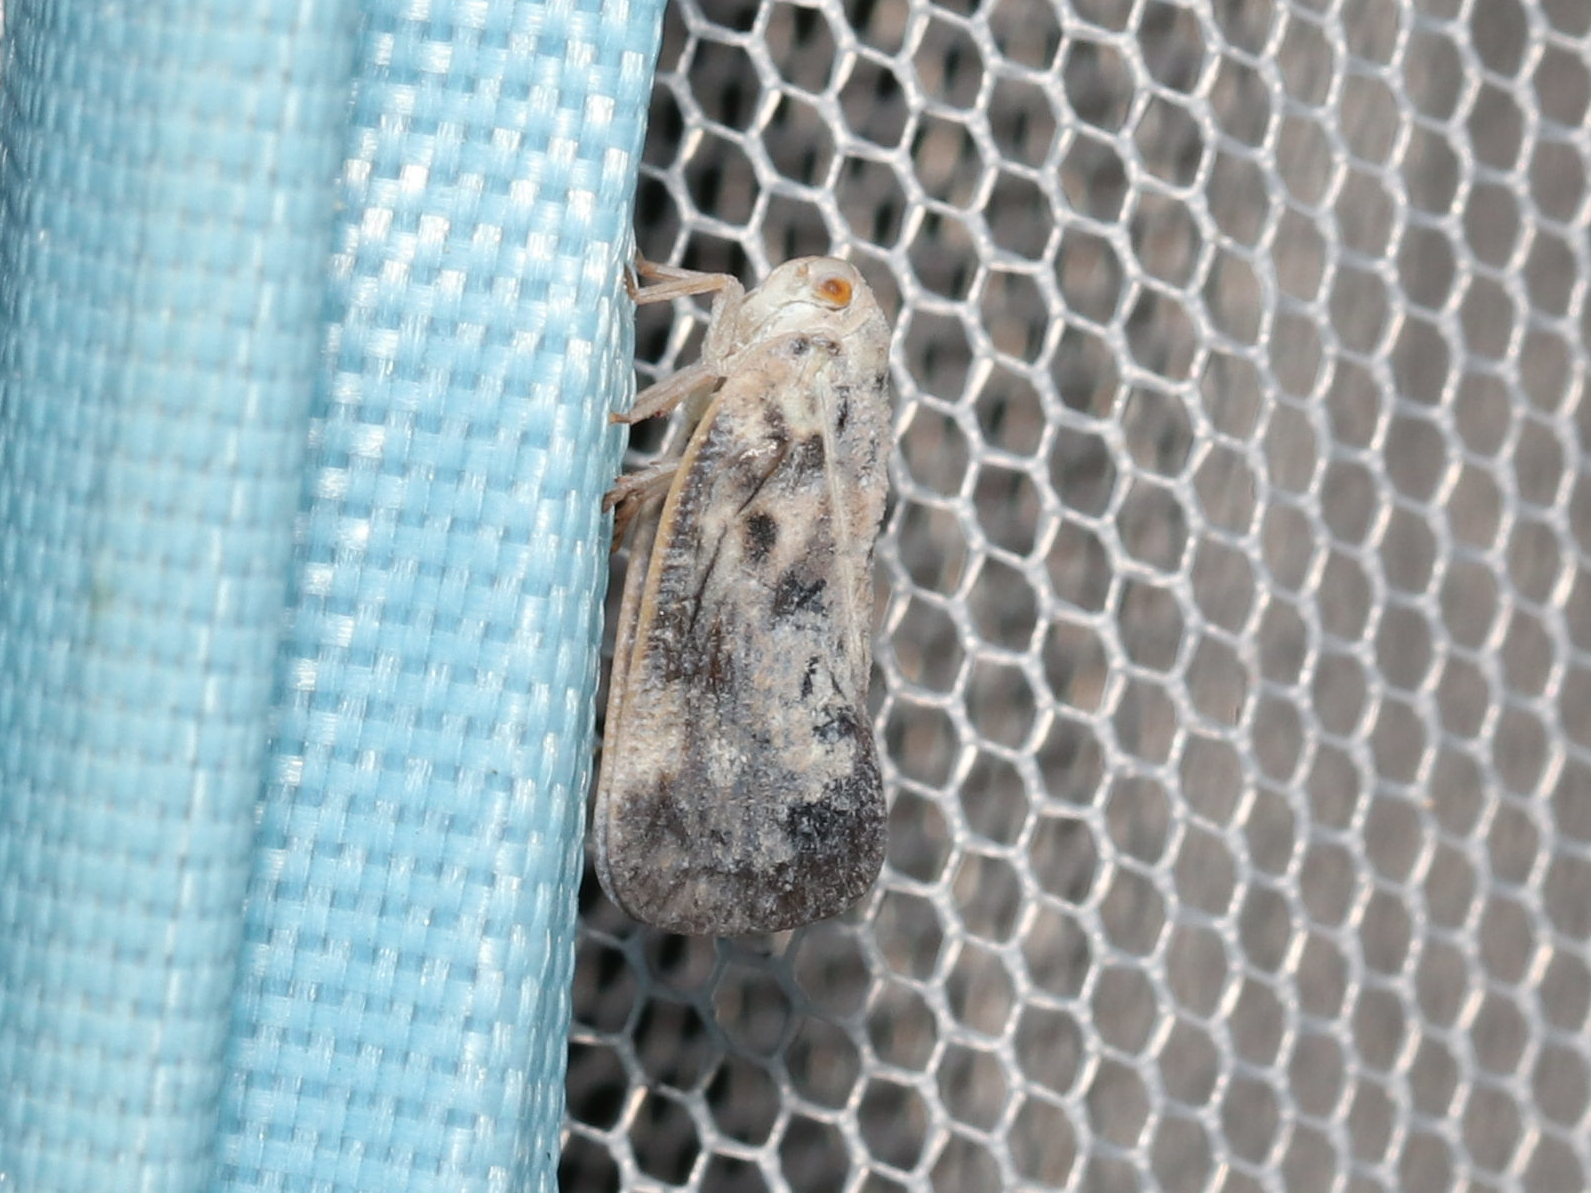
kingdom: Animalia
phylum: Arthropoda
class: Insecta
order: Hemiptera
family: Flatidae
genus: Metcalfa
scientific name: Metcalfa pruinosa
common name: Citrus flatid planthopper
